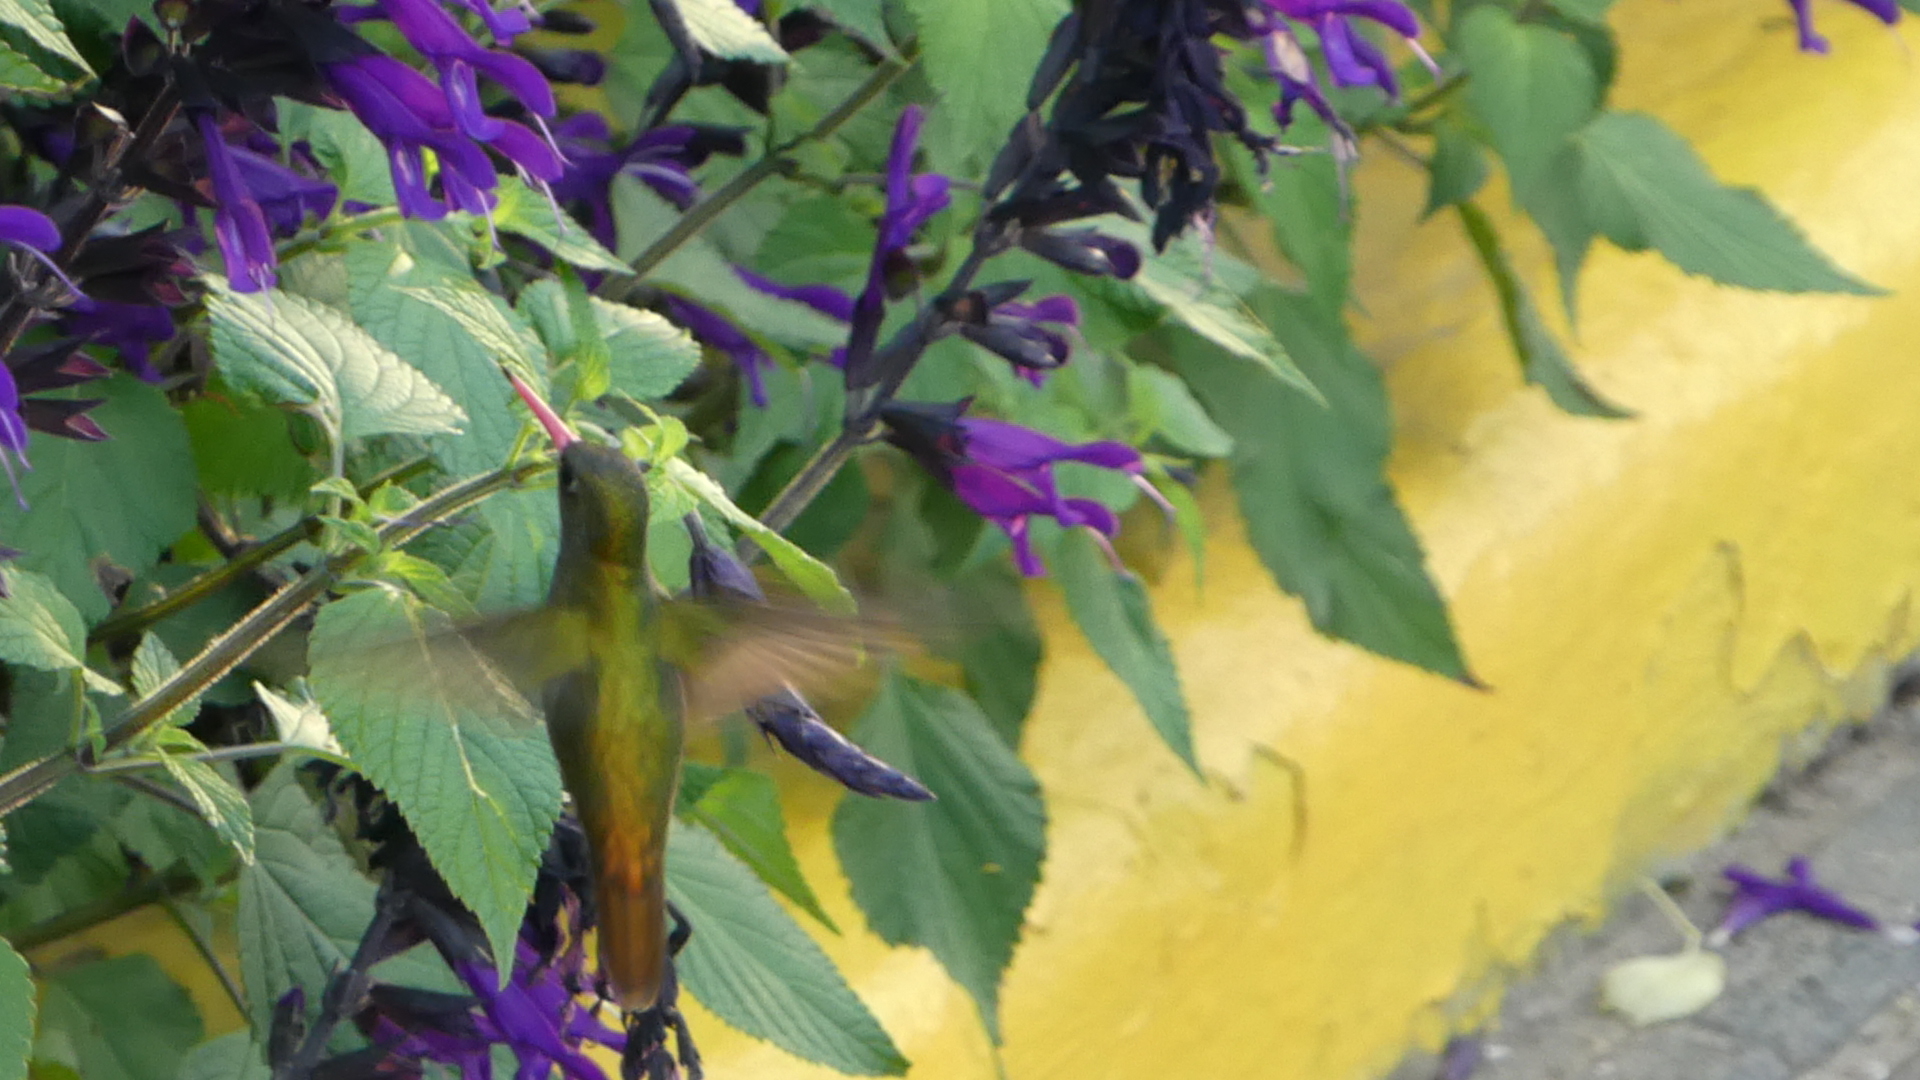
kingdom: Animalia
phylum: Chordata
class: Aves
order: Apodiformes
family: Trochilidae
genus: Hylocharis
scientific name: Hylocharis chrysura
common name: Gilded sapphire
